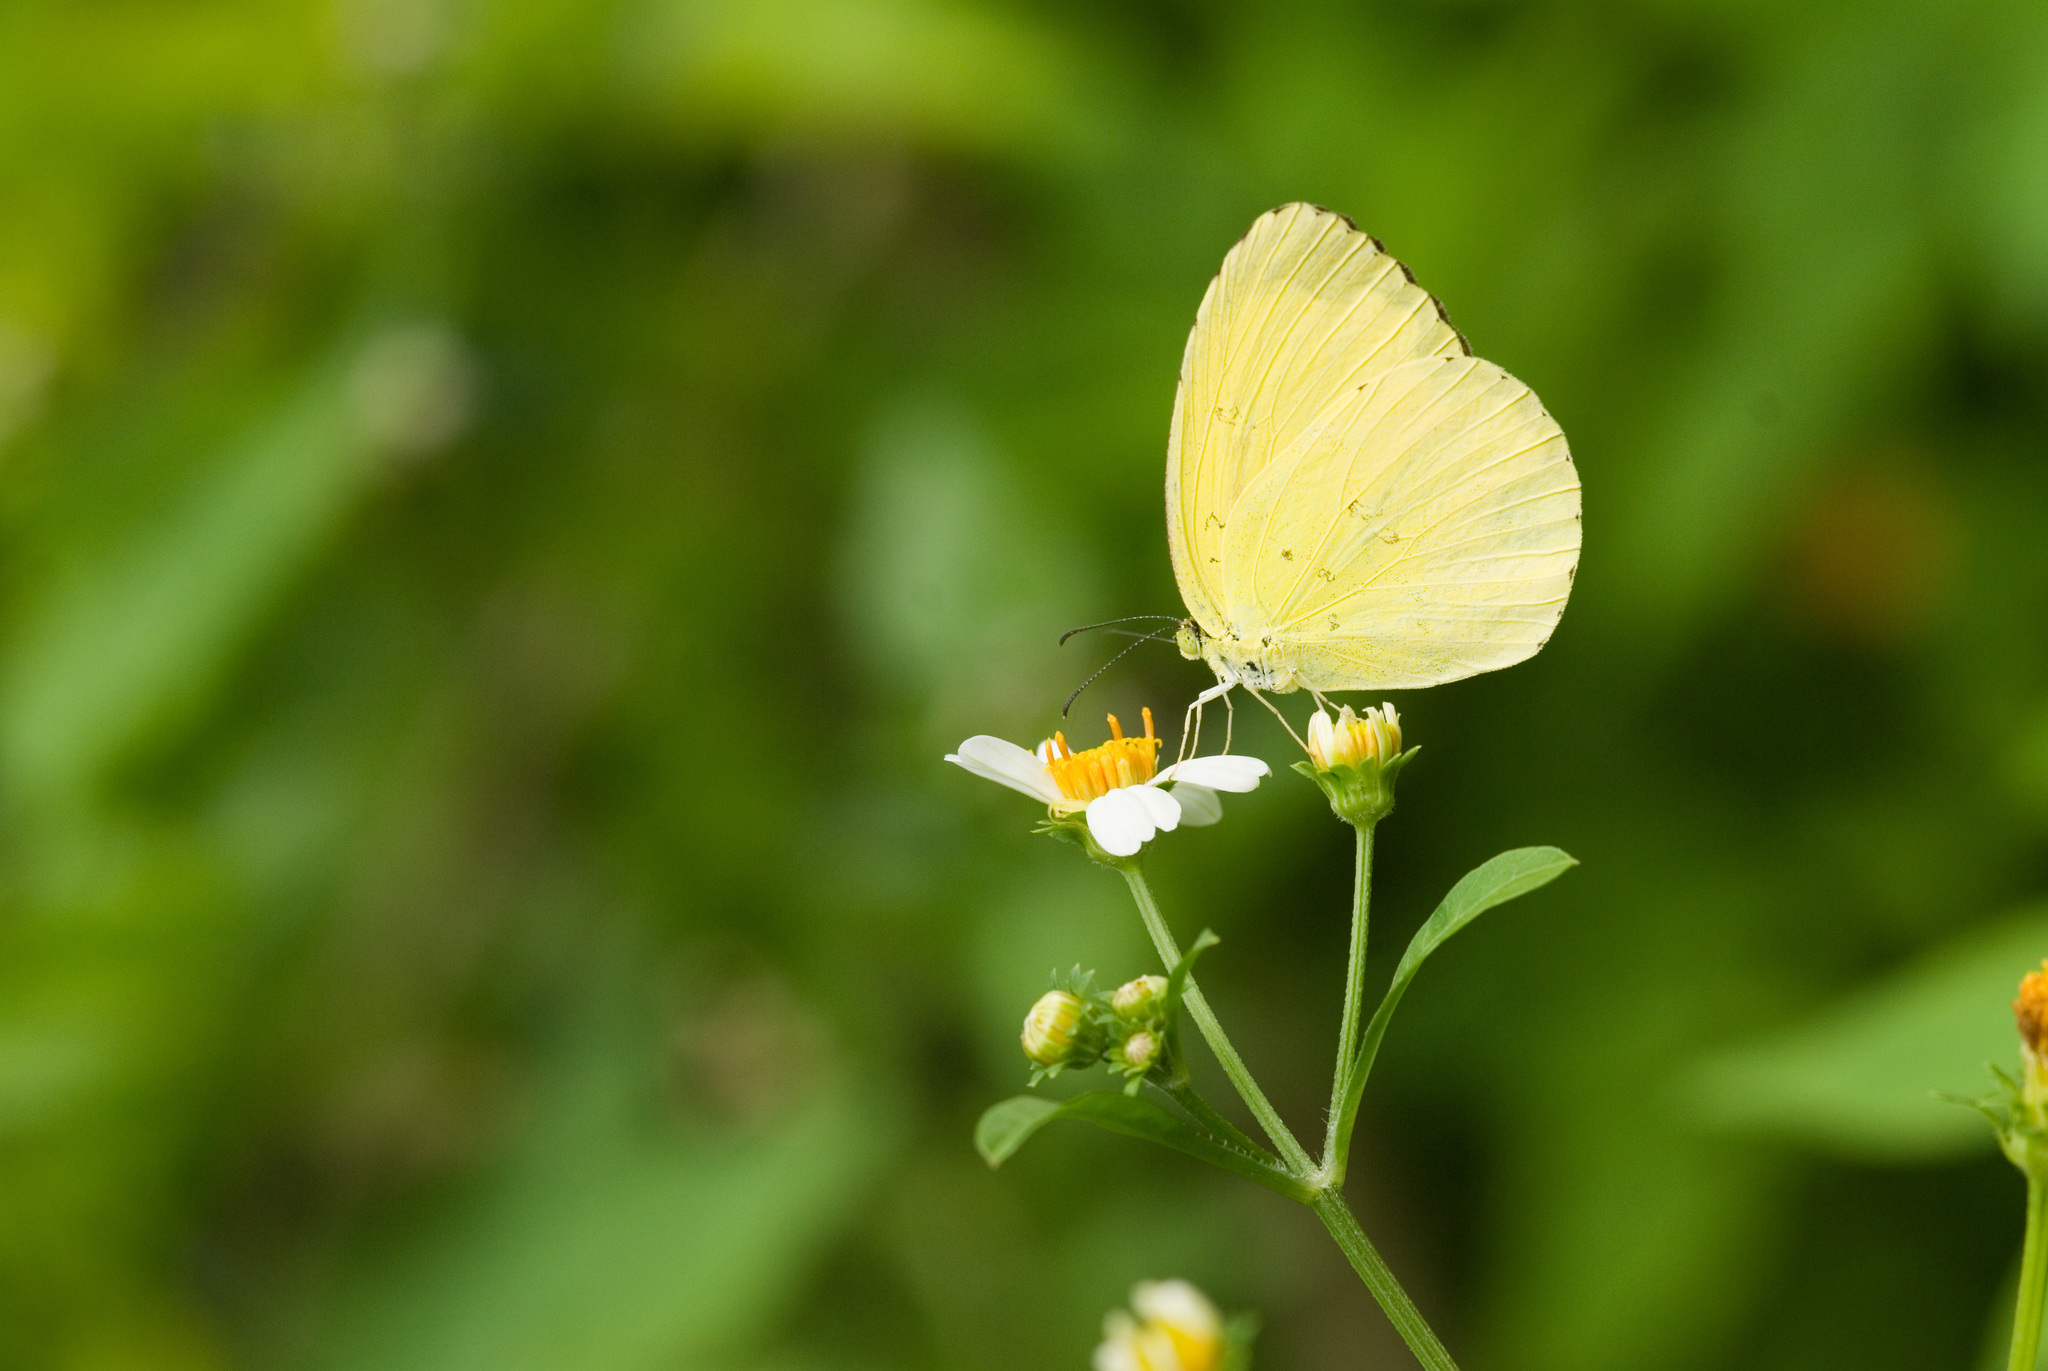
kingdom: Animalia
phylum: Arthropoda
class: Insecta
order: Lepidoptera
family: Pieridae
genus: Eurema
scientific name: Eurema blanda
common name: Three-spot grass yellow
